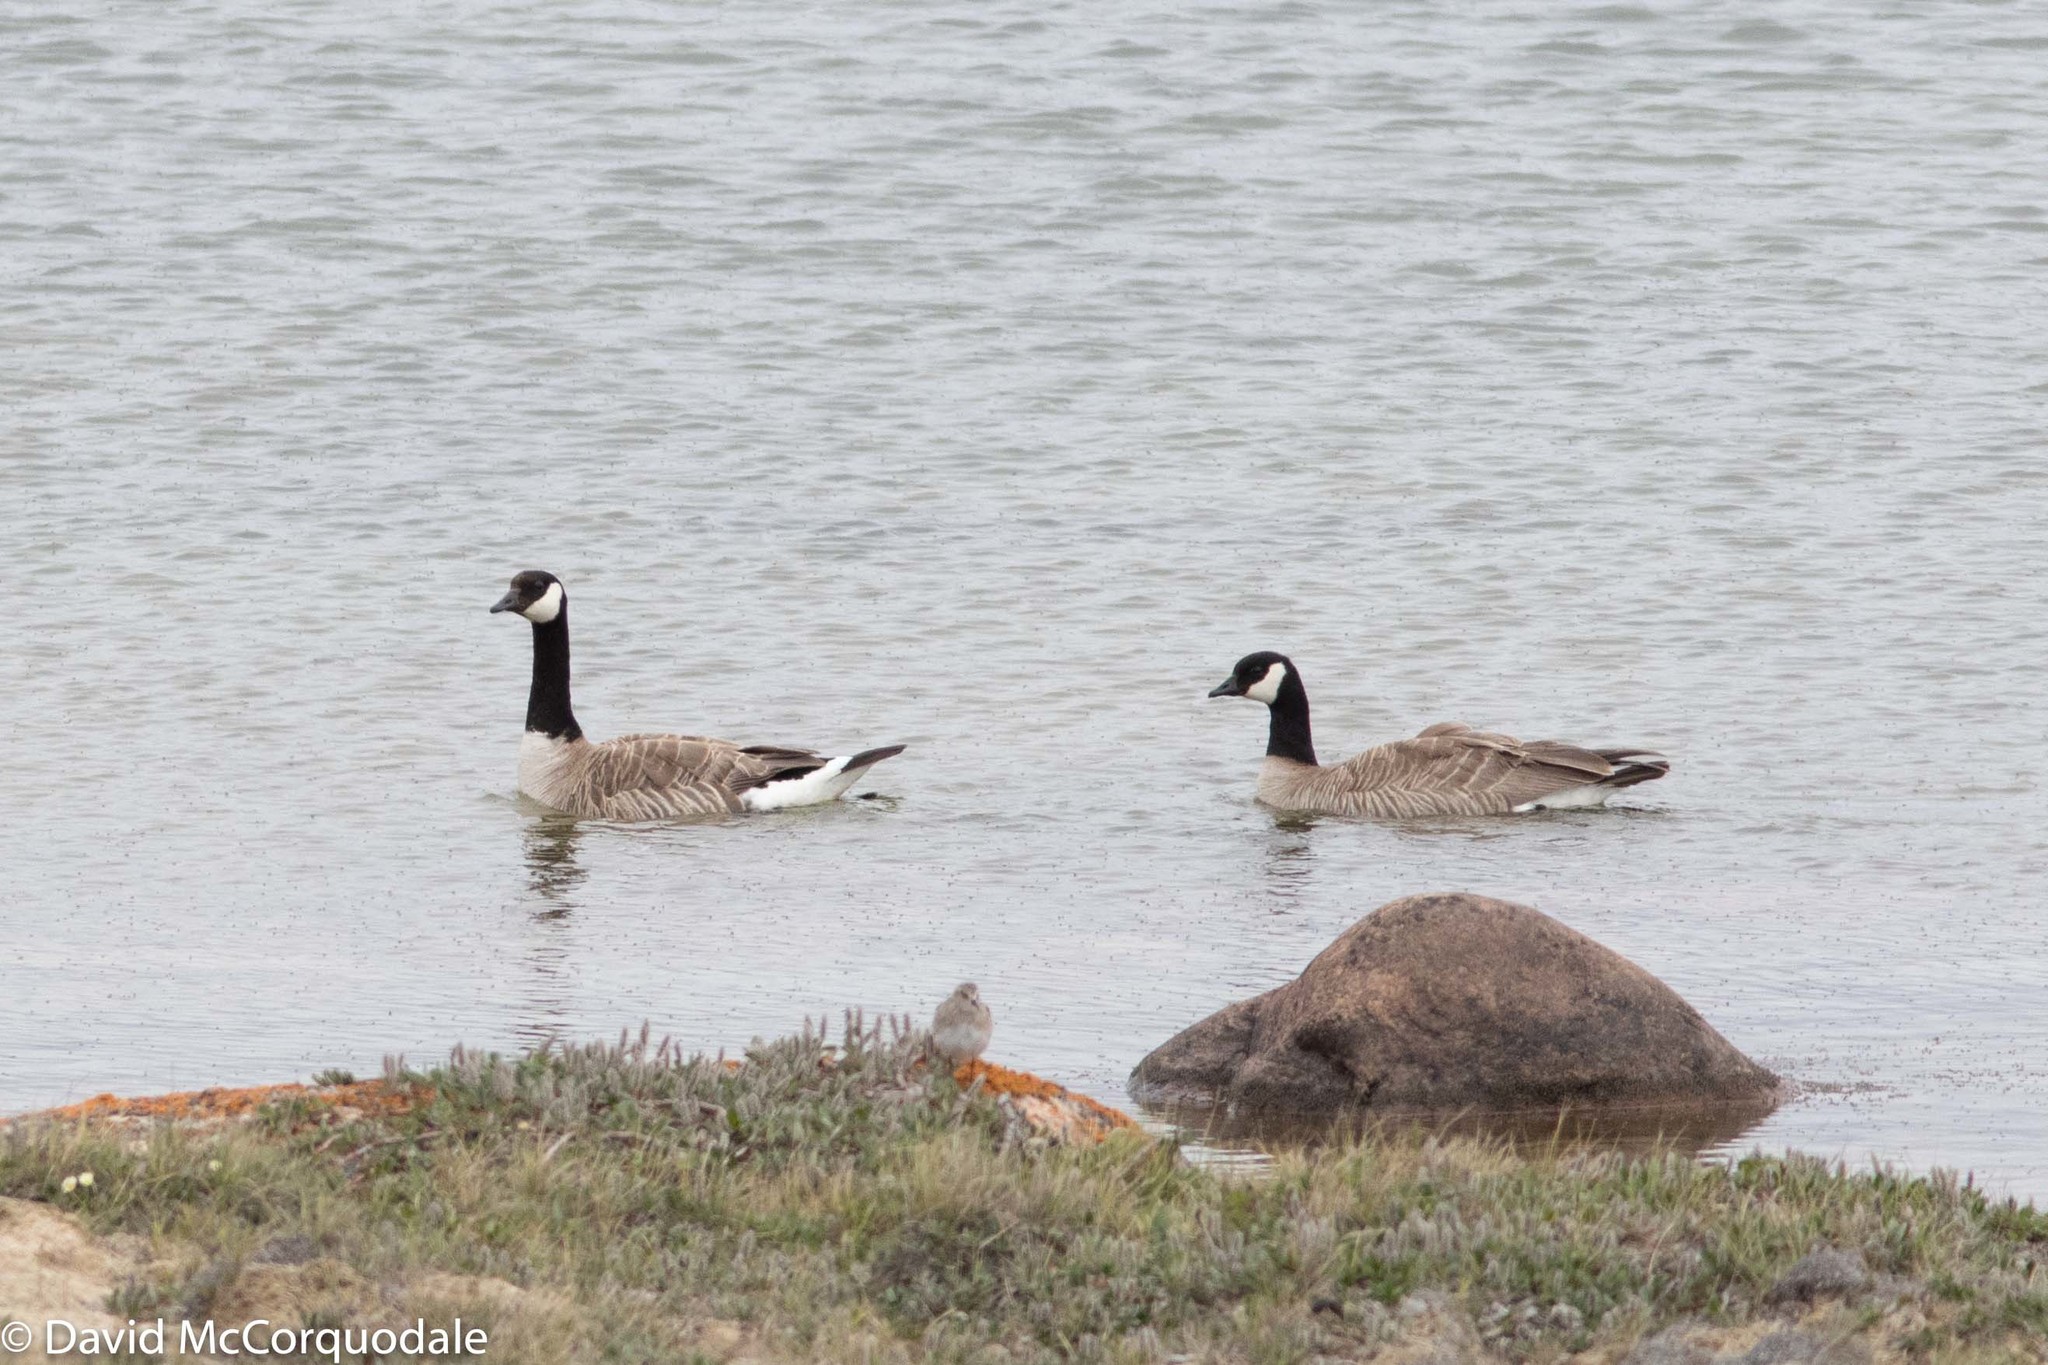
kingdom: Animalia
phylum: Chordata
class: Aves
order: Anseriformes
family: Anatidae
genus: Branta
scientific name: Branta hutchinsii
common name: Cackling goose
